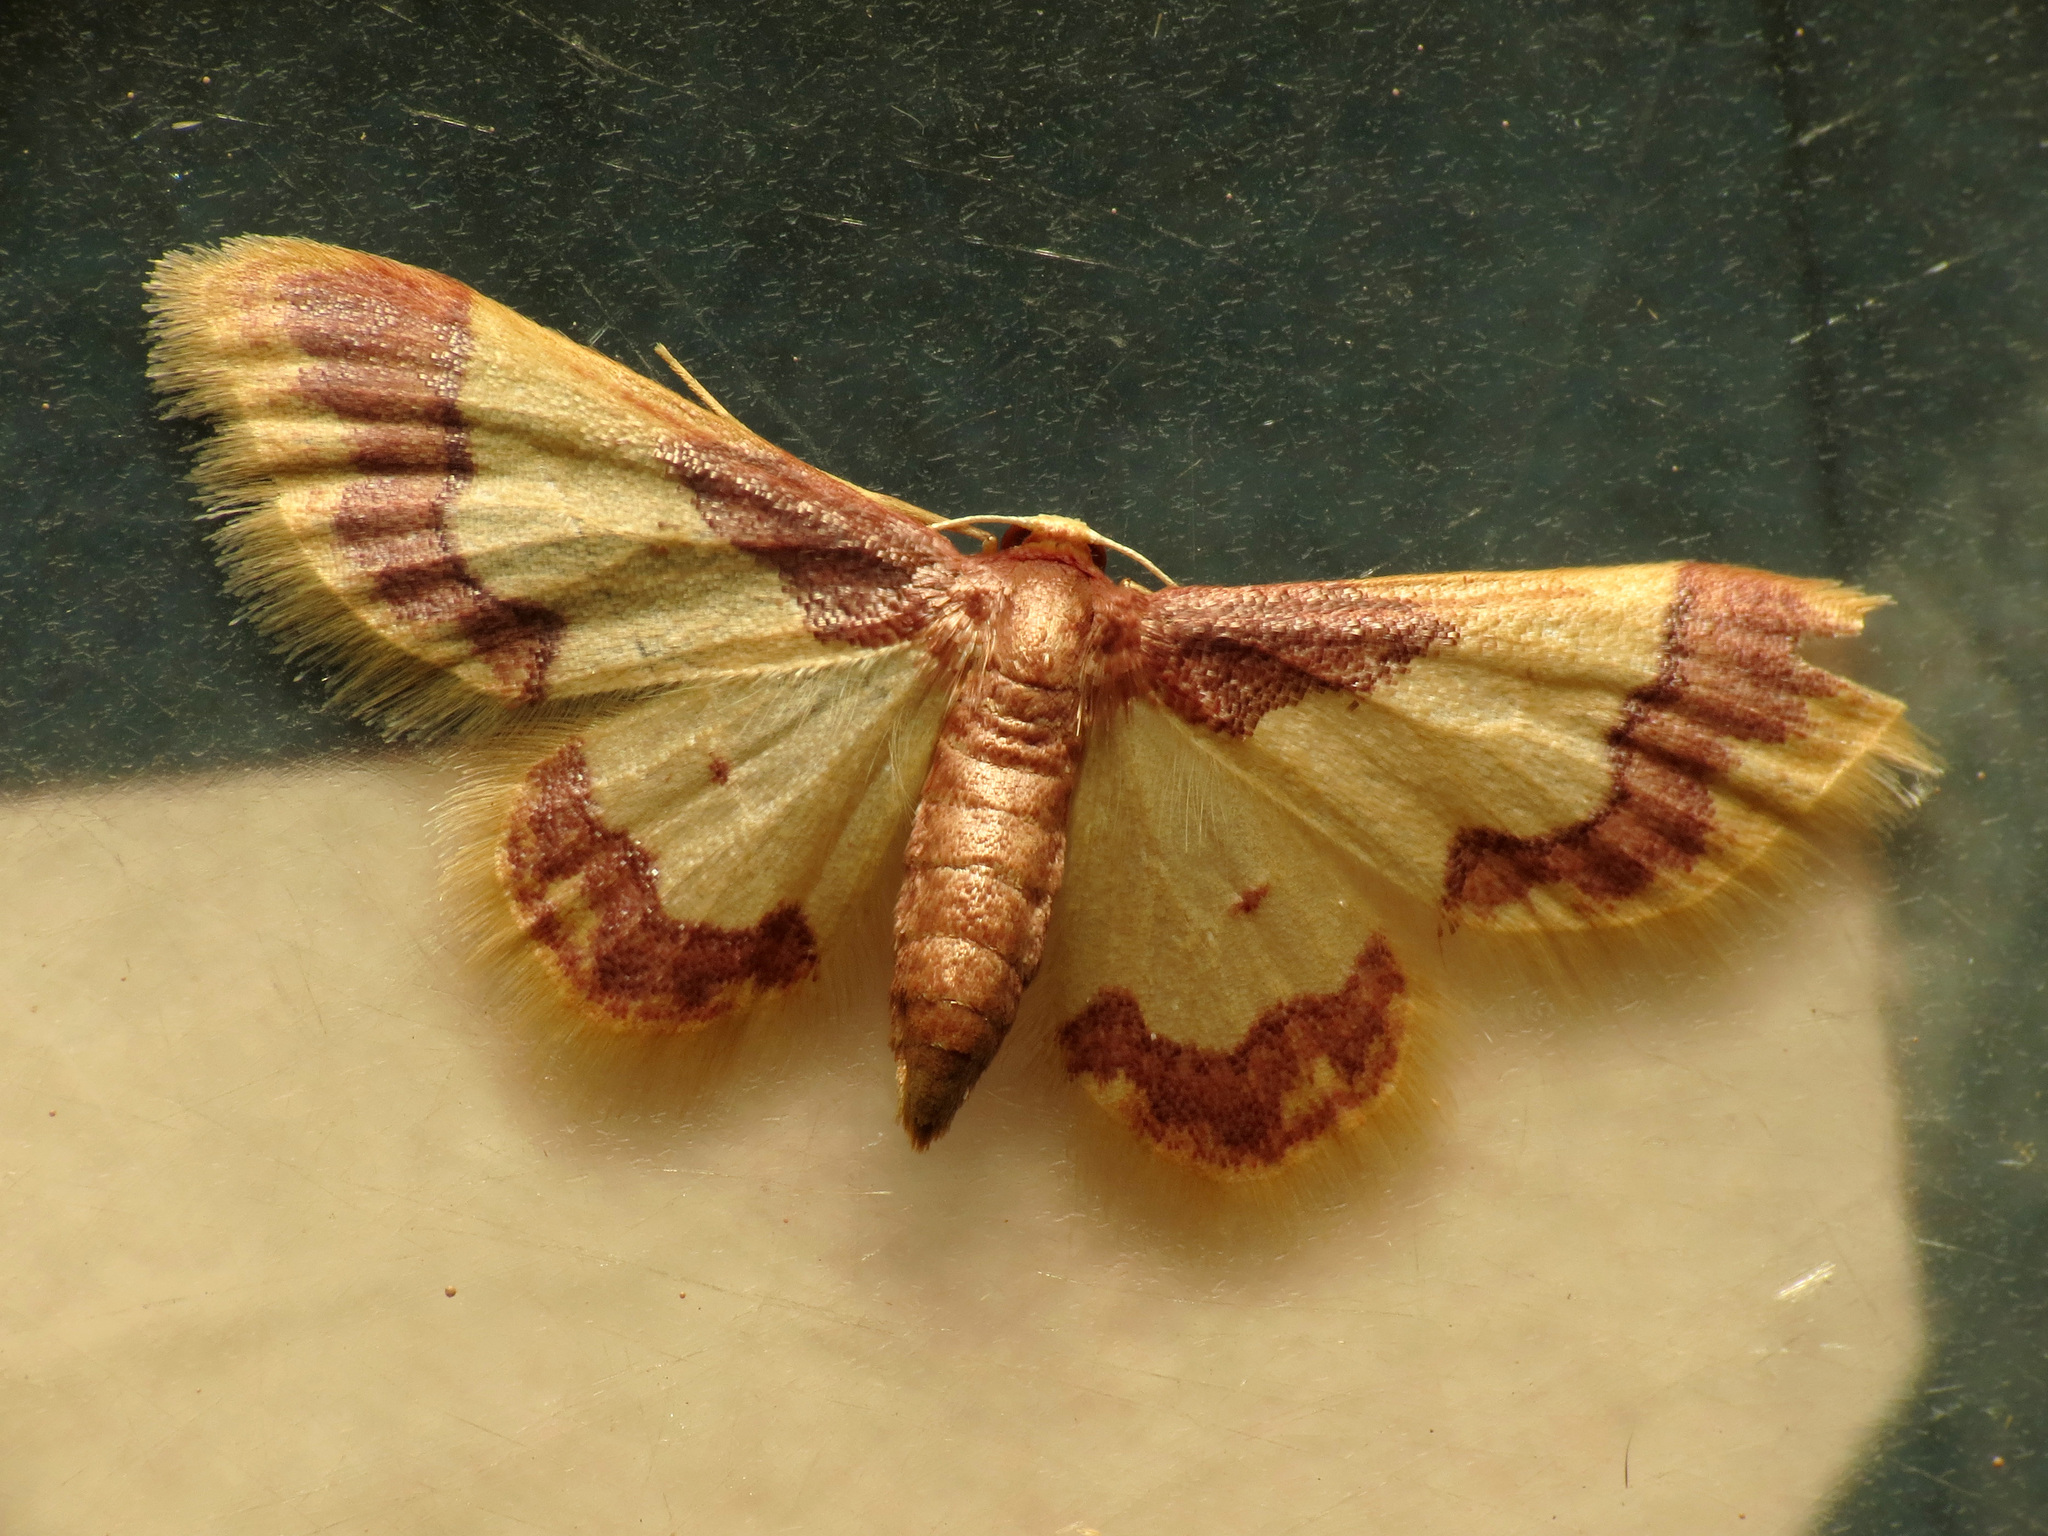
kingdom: Animalia
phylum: Arthropoda
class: Insecta
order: Lepidoptera
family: Geometridae
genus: Idaea
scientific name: Idaea basinta
